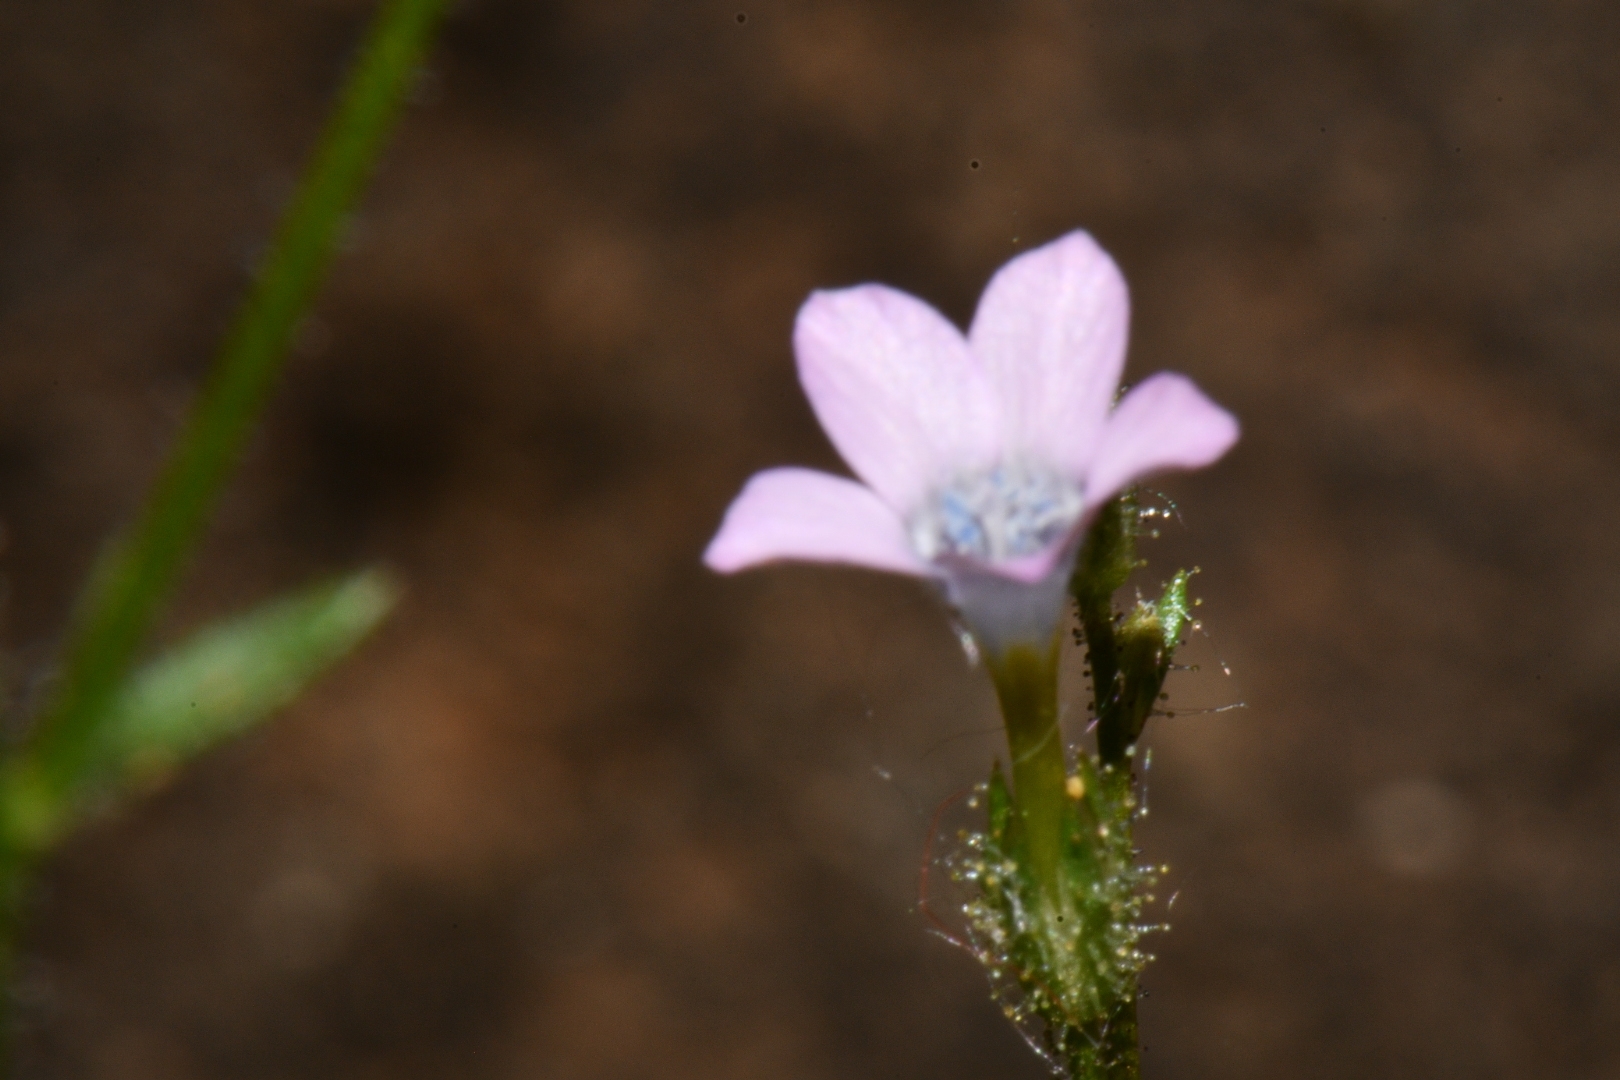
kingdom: Plantae
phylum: Tracheophyta
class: Magnoliopsida
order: Ericales
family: Polemoniaceae
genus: Gilia
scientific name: Gilia scopulorum
